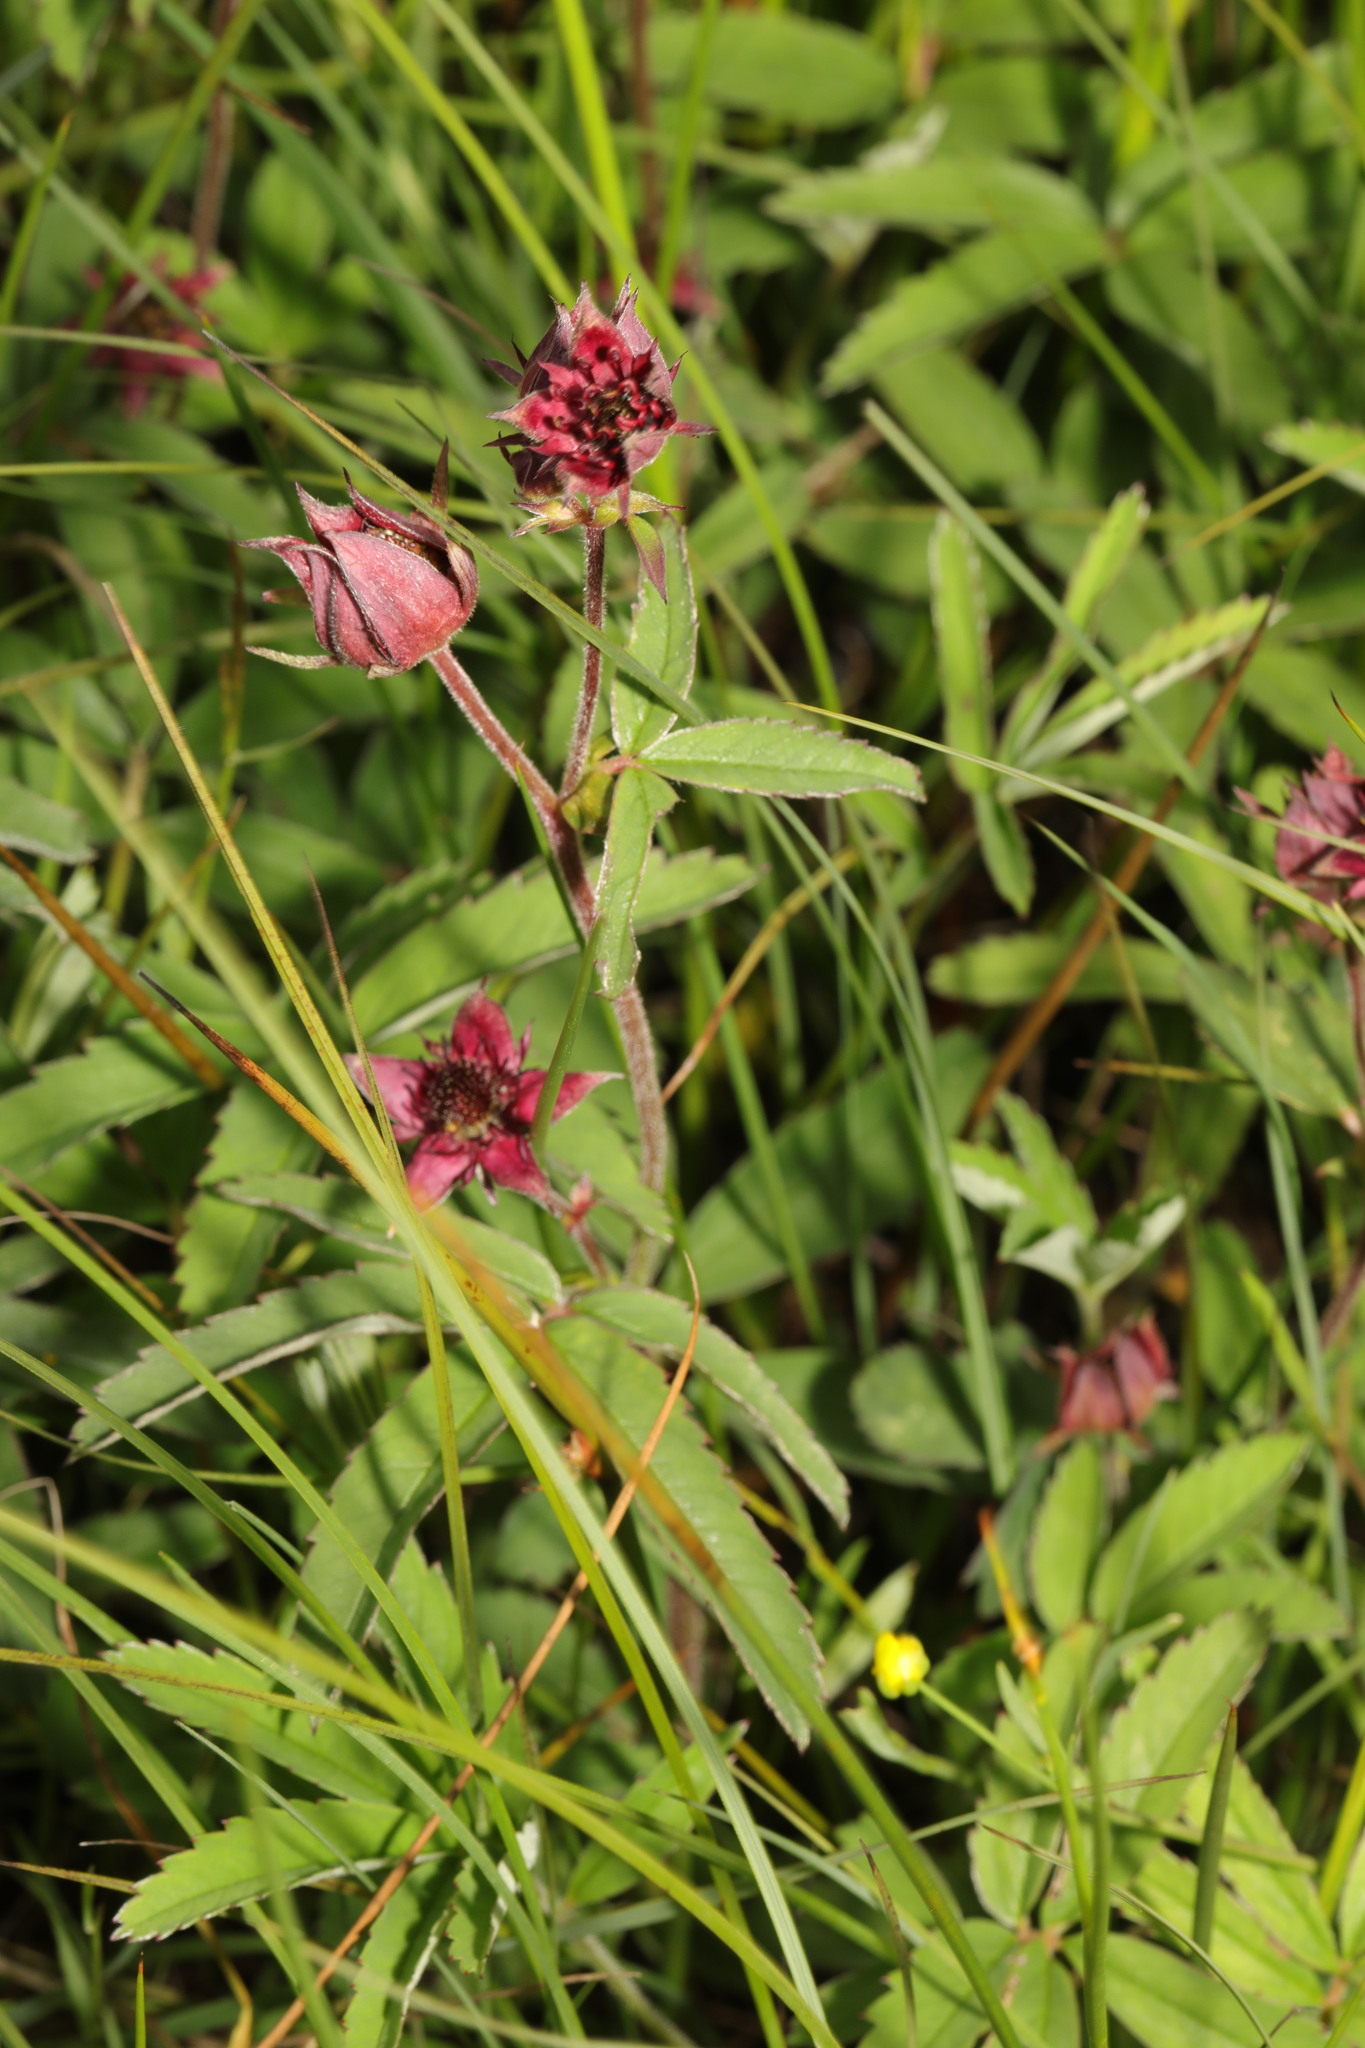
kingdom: Plantae
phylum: Tracheophyta
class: Magnoliopsida
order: Rosales
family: Rosaceae
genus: Comarum
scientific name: Comarum palustre
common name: Marsh cinquefoil
